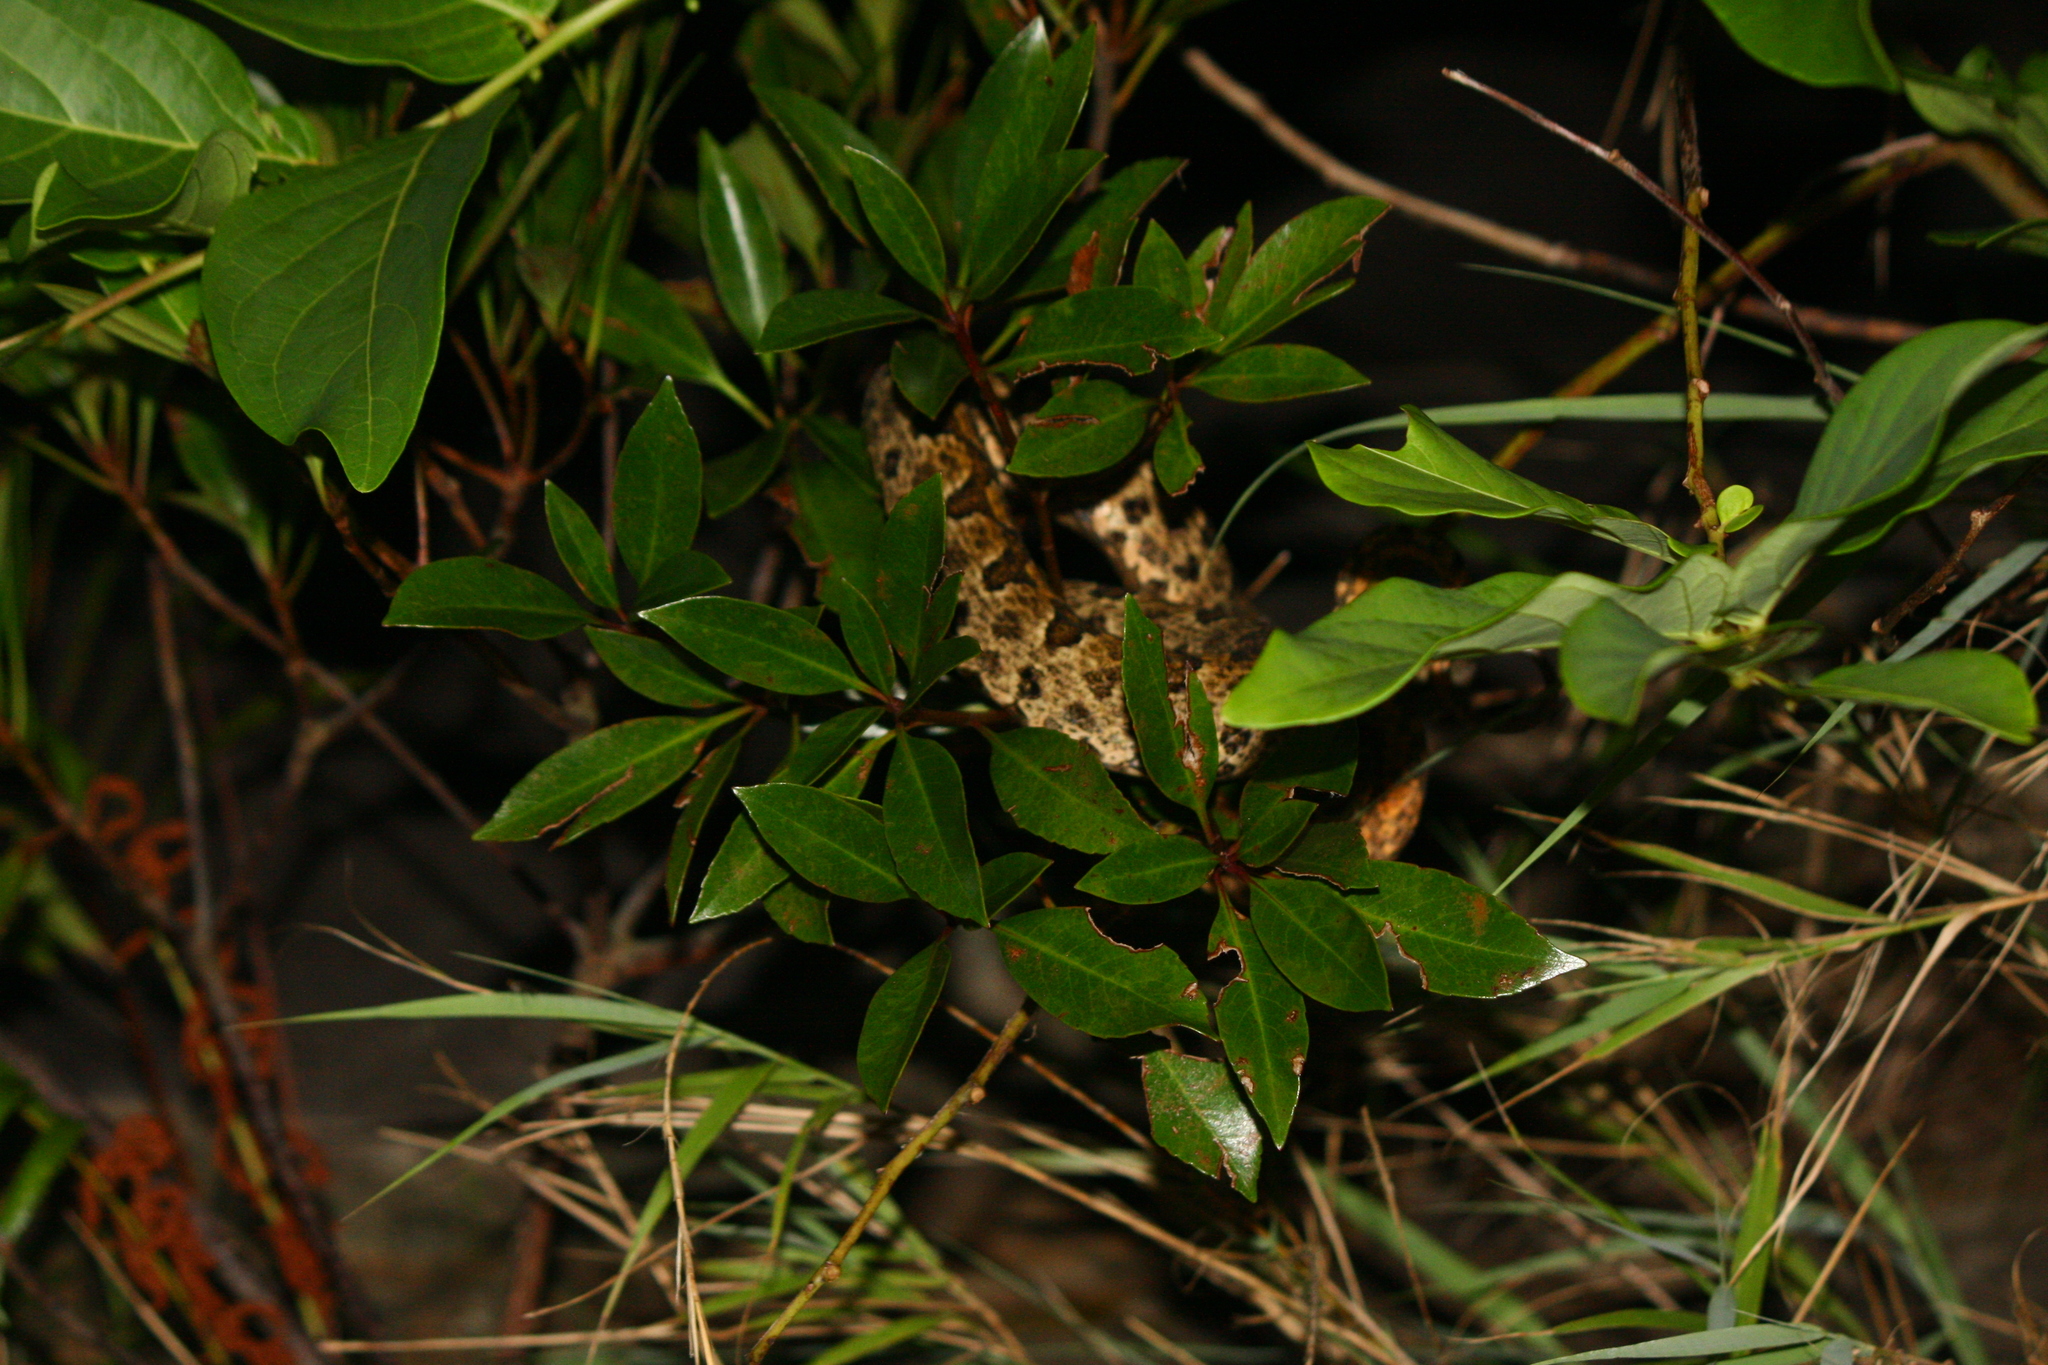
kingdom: Animalia
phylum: Chordata
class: Squamata
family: Viperidae
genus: Protobothrops
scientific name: Protobothrops elegans
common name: Elegant pitviper
